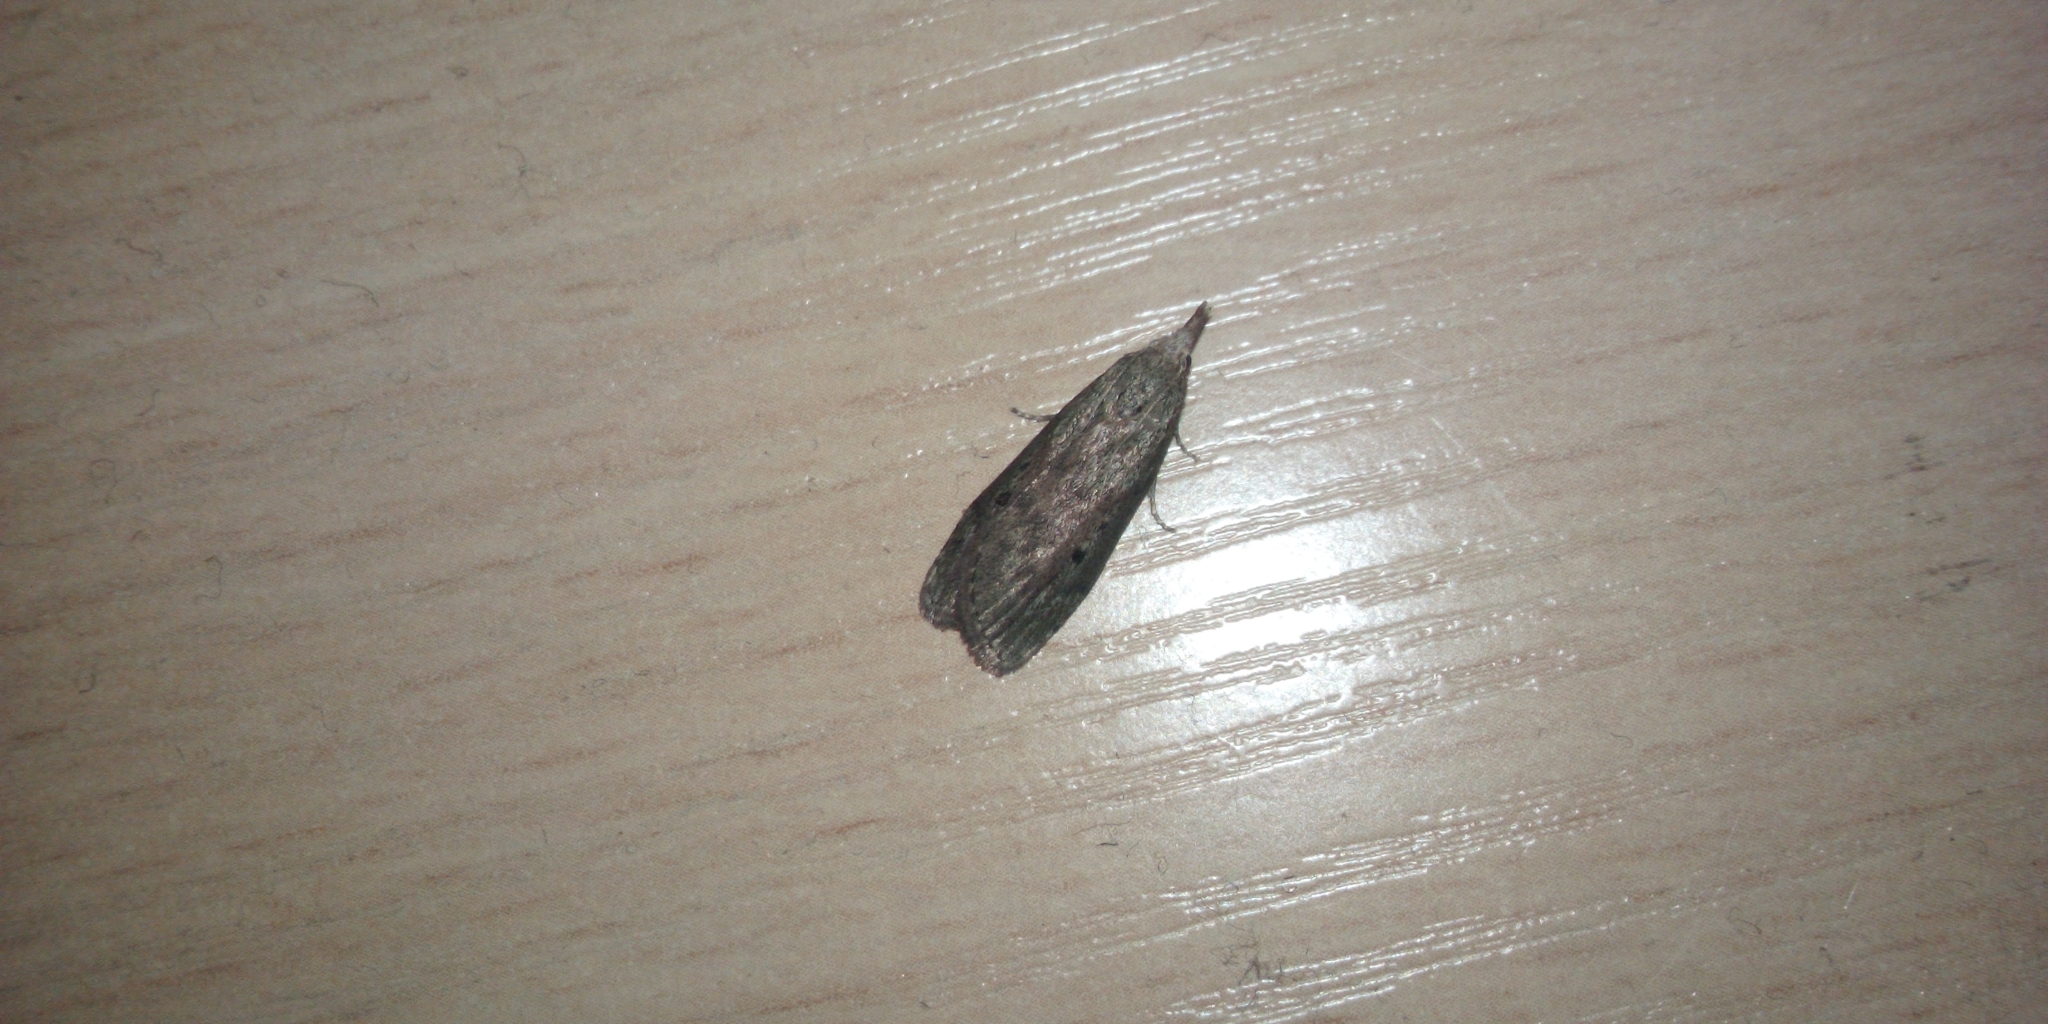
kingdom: Animalia
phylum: Arthropoda
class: Insecta
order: Lepidoptera
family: Pyralidae
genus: Aphomia
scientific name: Aphomia sociella
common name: Bee moth
